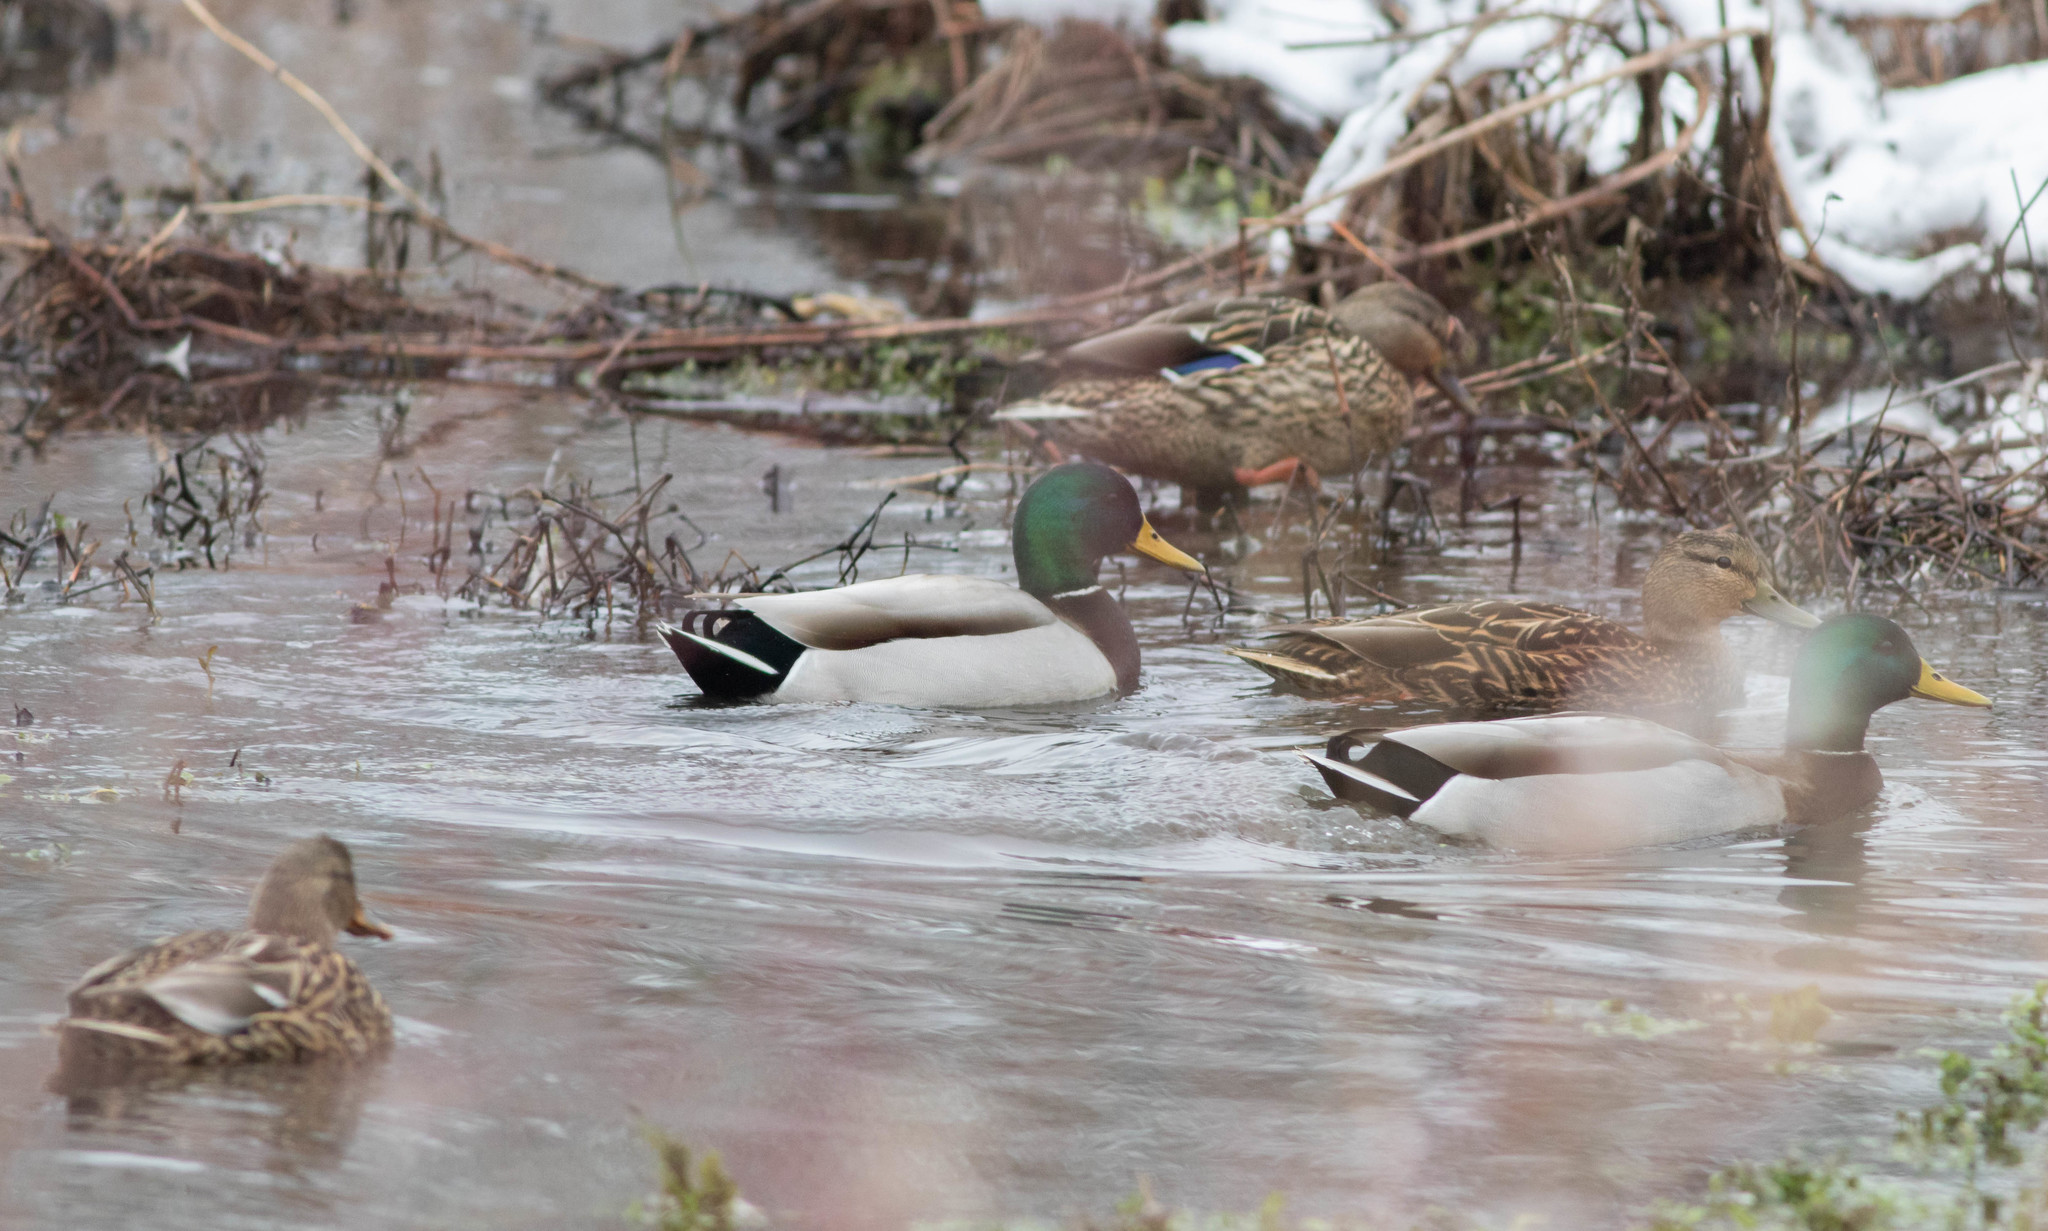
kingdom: Animalia
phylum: Chordata
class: Aves
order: Anseriformes
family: Anatidae
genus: Anas
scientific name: Anas platyrhynchos
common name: Mallard
